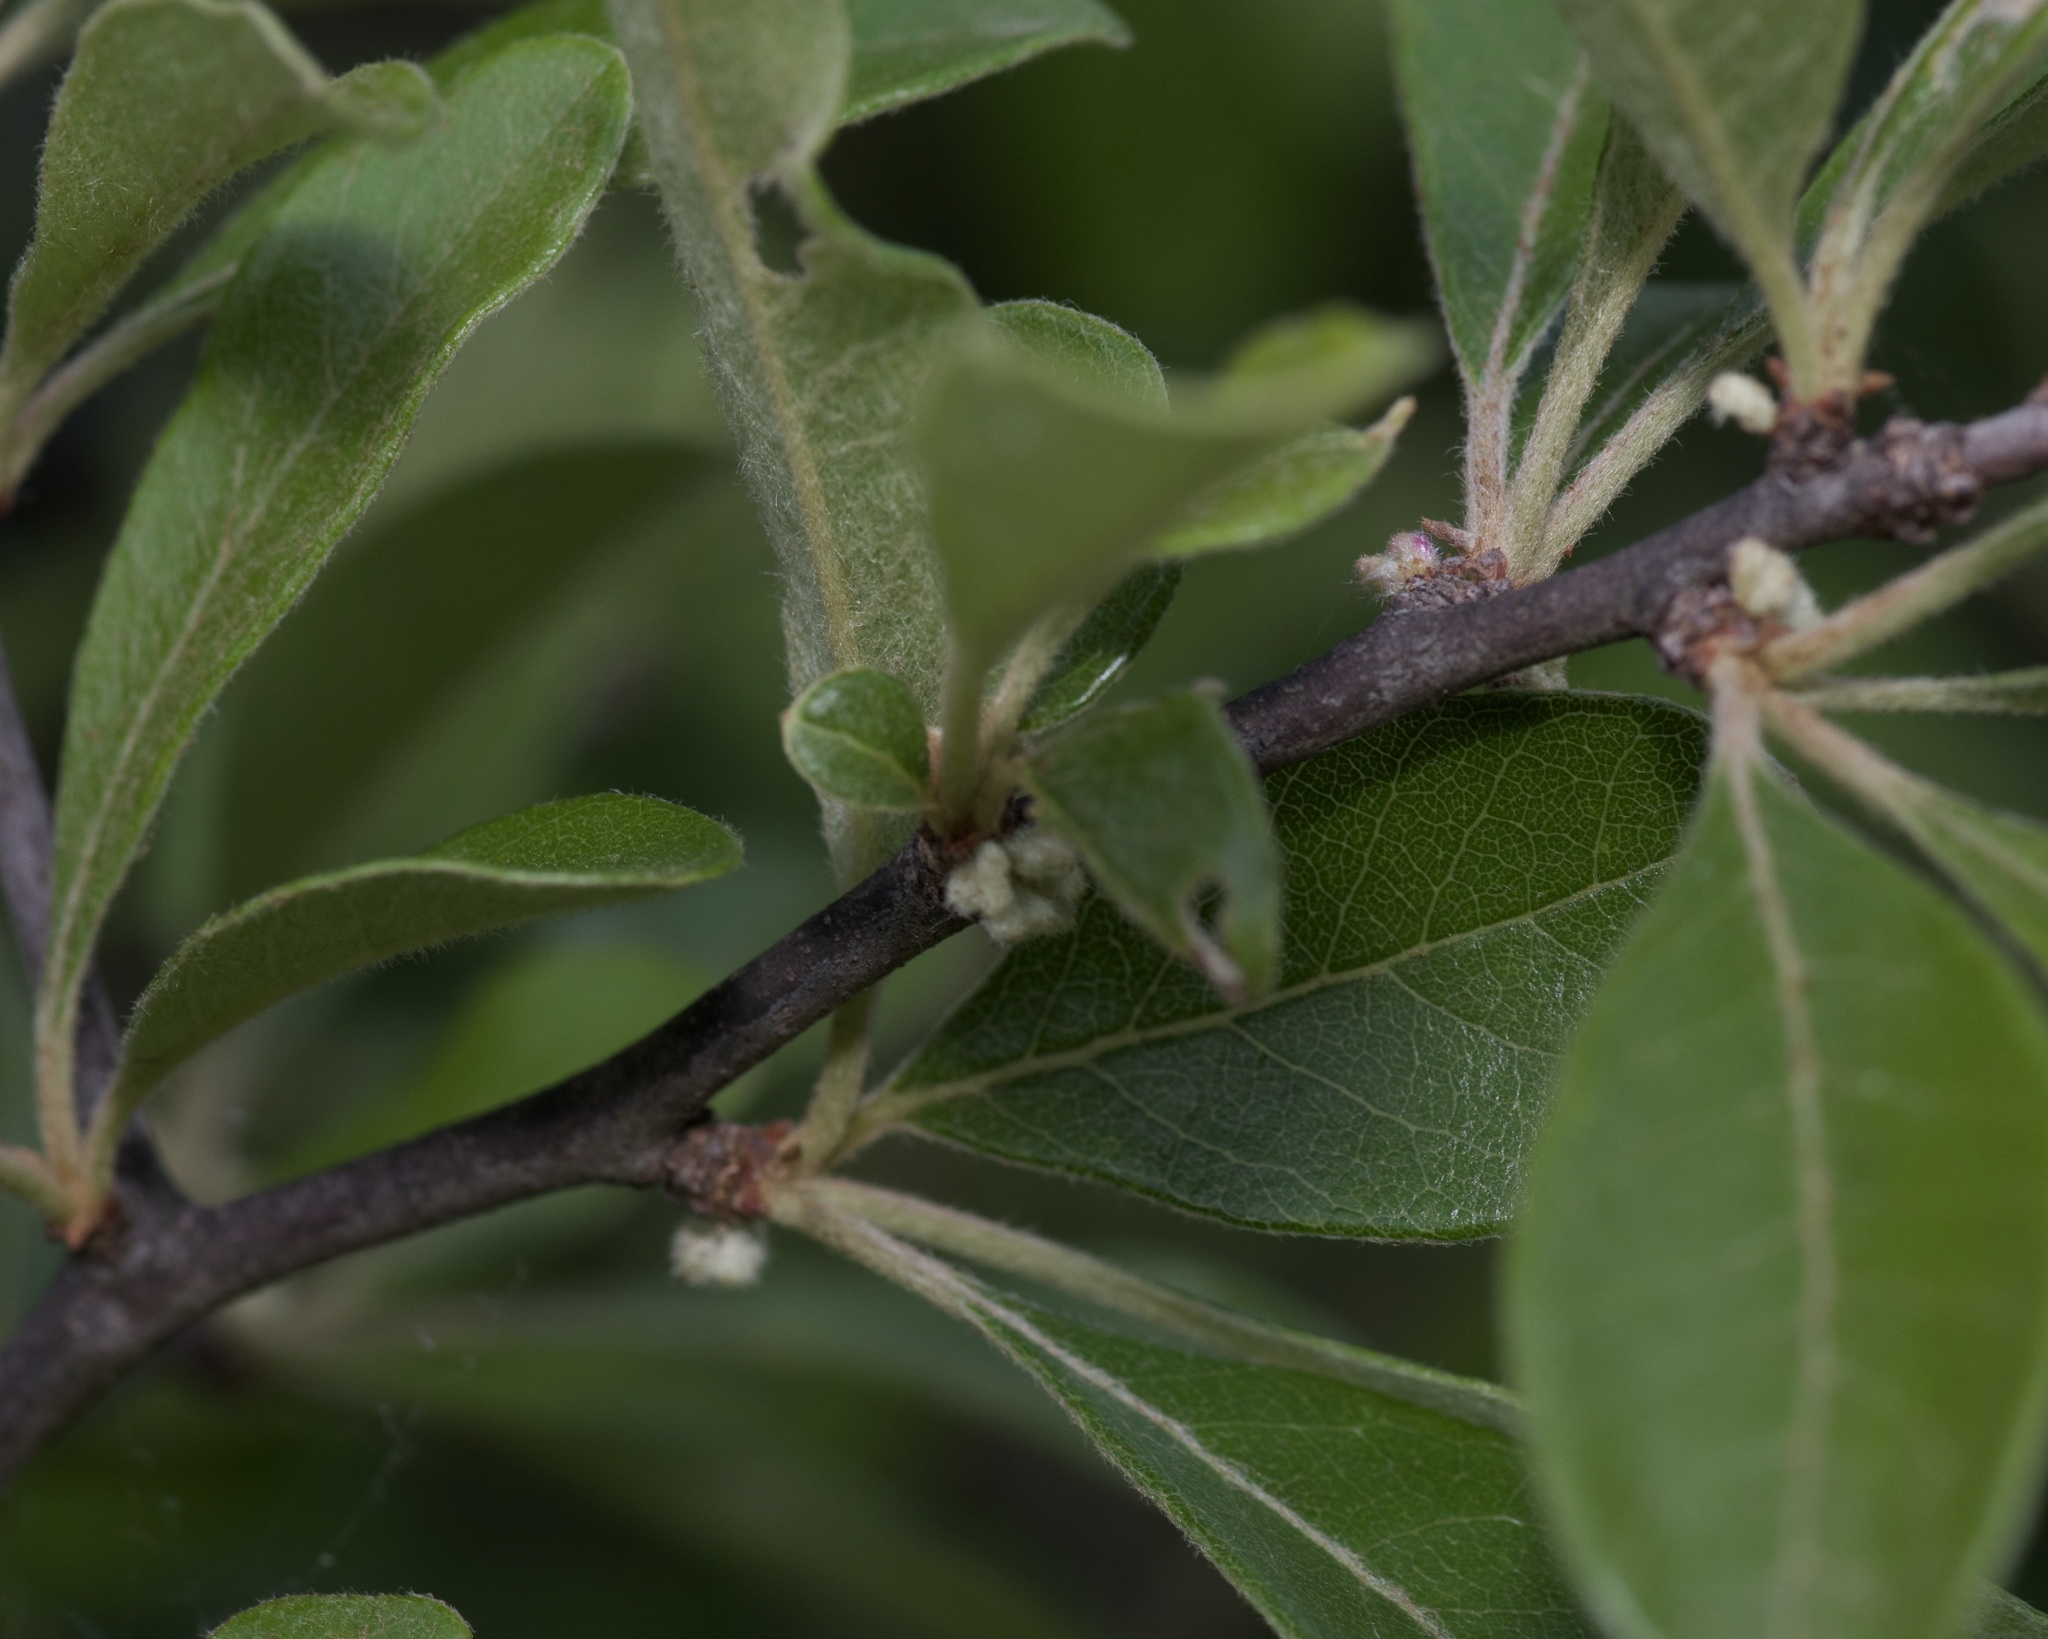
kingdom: Plantae
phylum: Tracheophyta
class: Magnoliopsida
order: Ericales
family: Sapotaceae
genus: Sideroxylon
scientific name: Sideroxylon lanuginosum
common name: Chittamwood
